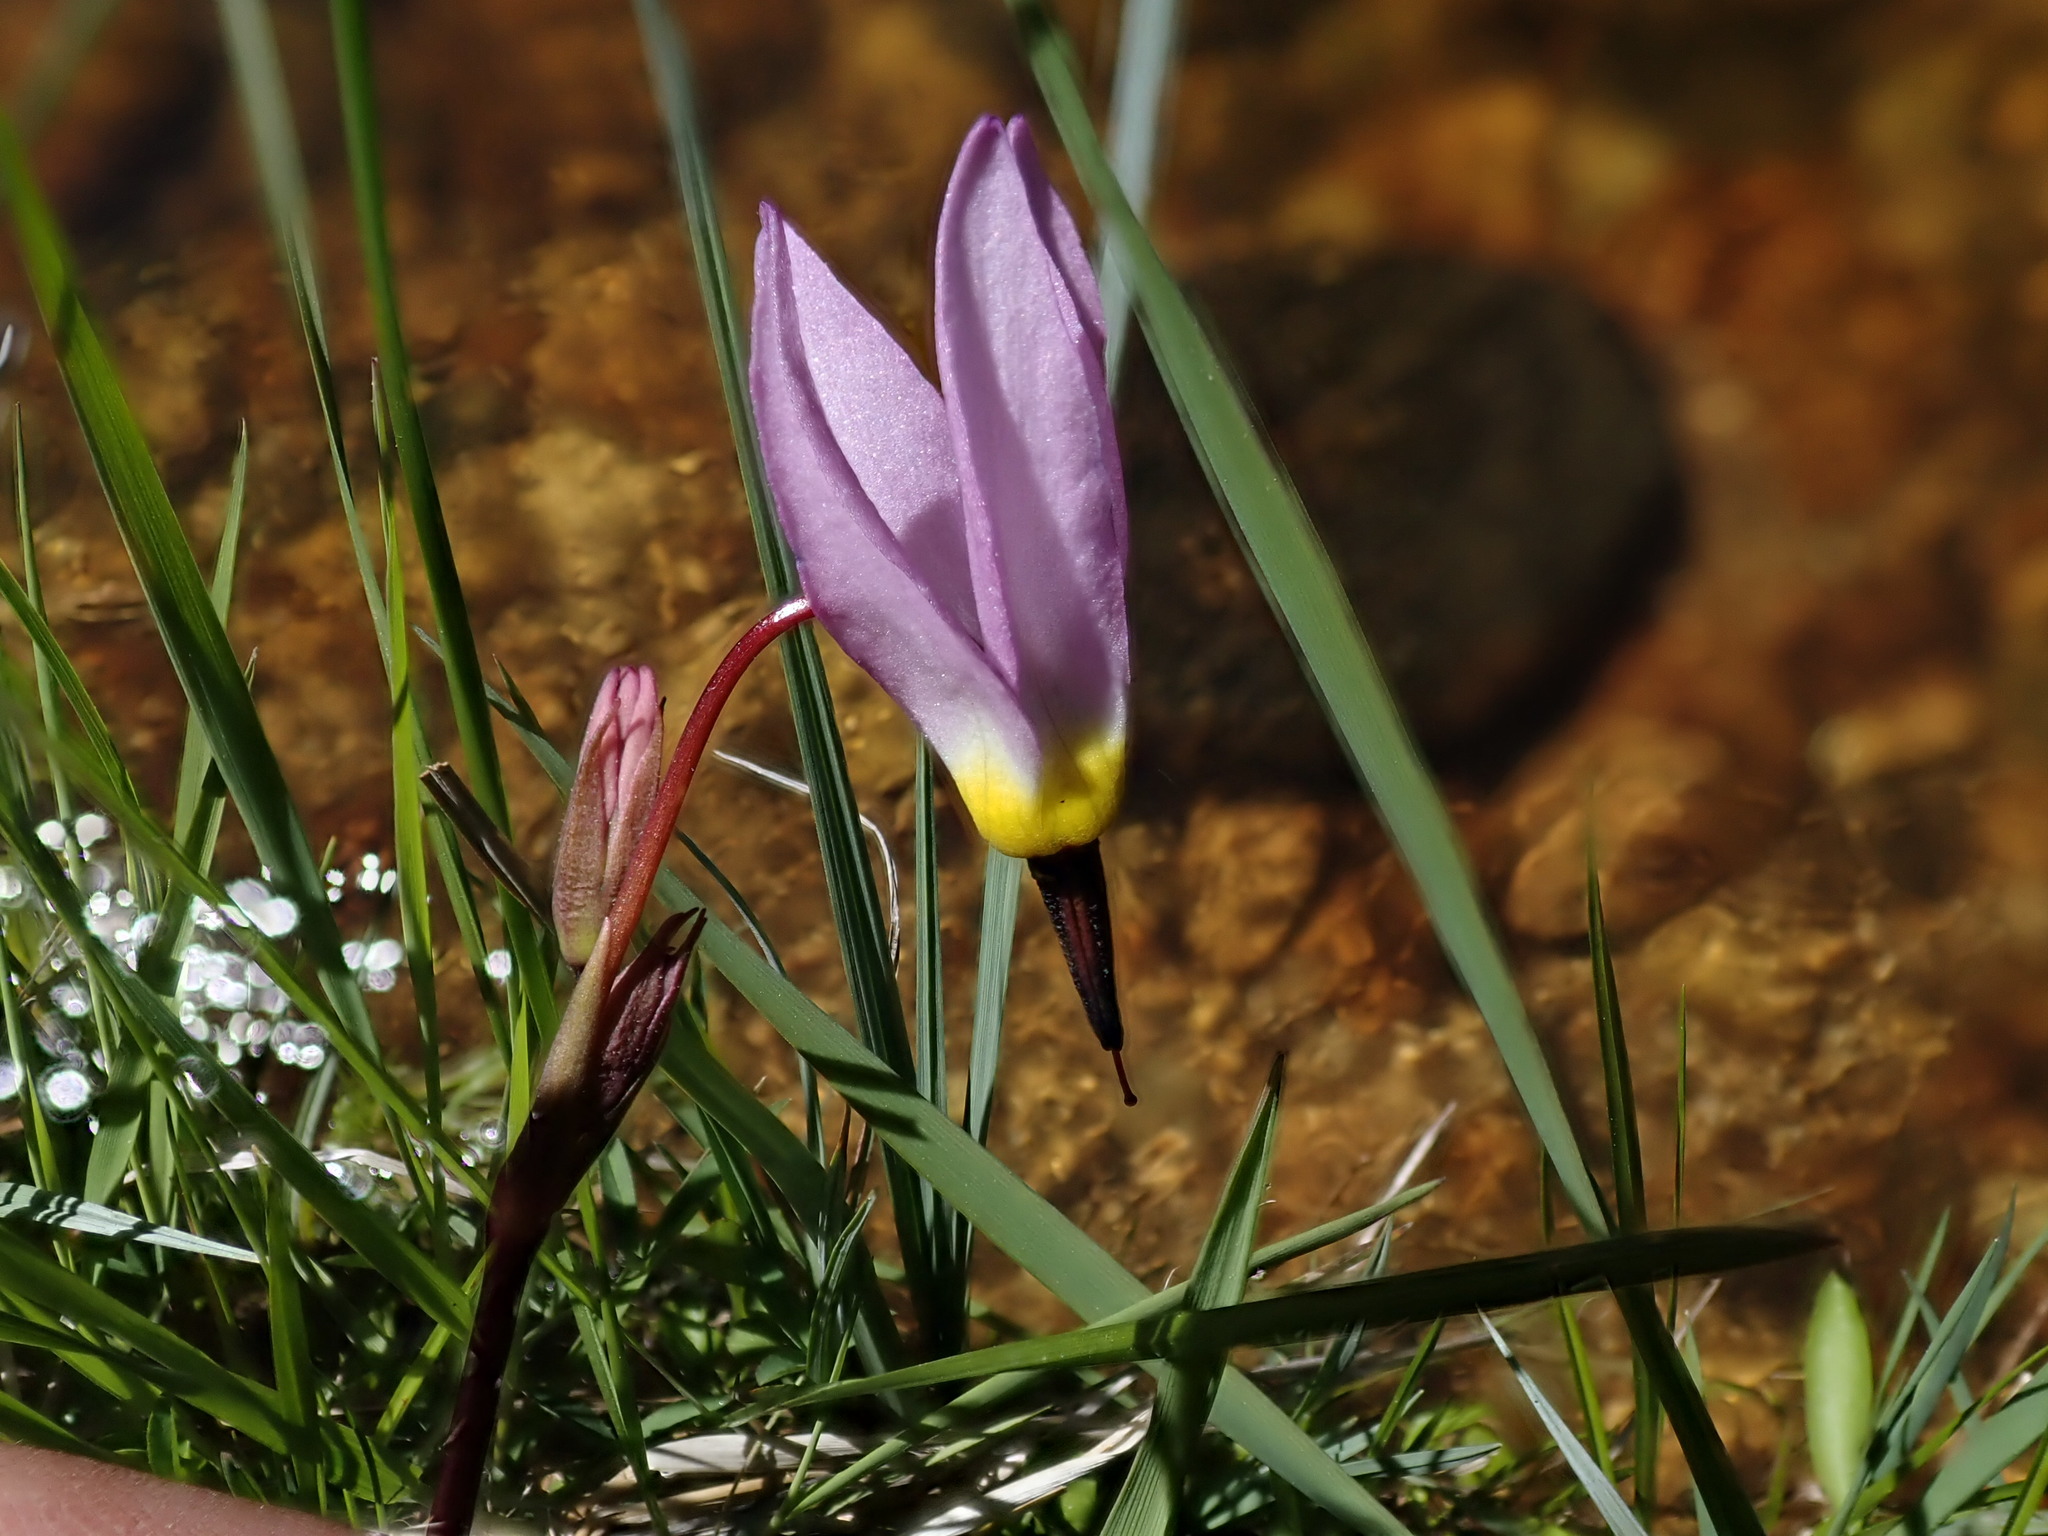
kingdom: Plantae
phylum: Tracheophyta
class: Magnoliopsida
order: Ericales
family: Primulaceae
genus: Dodecatheon
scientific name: Dodecatheon alpinum
